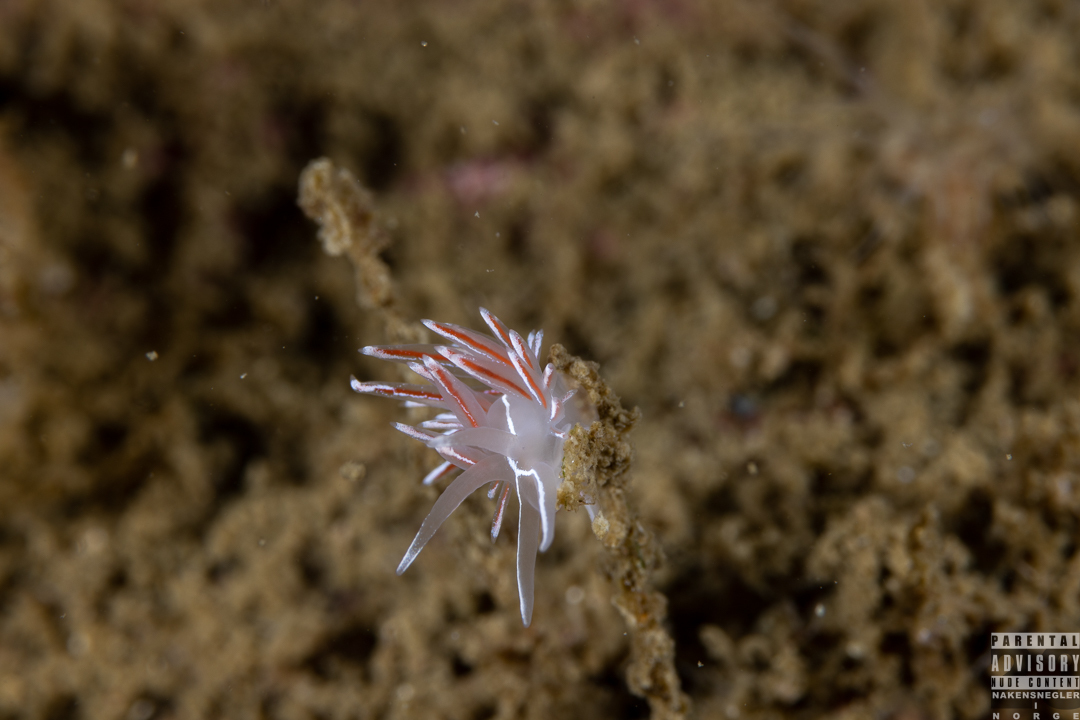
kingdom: Animalia
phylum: Mollusca
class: Gastropoda
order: Nudibranchia
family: Coryphellidae
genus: Coryphella
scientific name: Coryphella lineata
